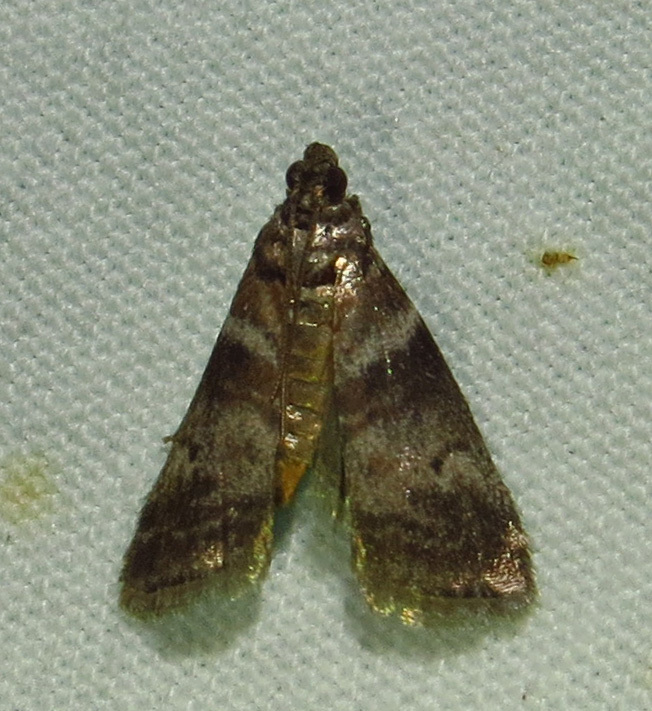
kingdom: Animalia
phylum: Arthropoda
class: Insecta
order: Lepidoptera
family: Pyralidae
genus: Sciota
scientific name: Sciota uvinella
